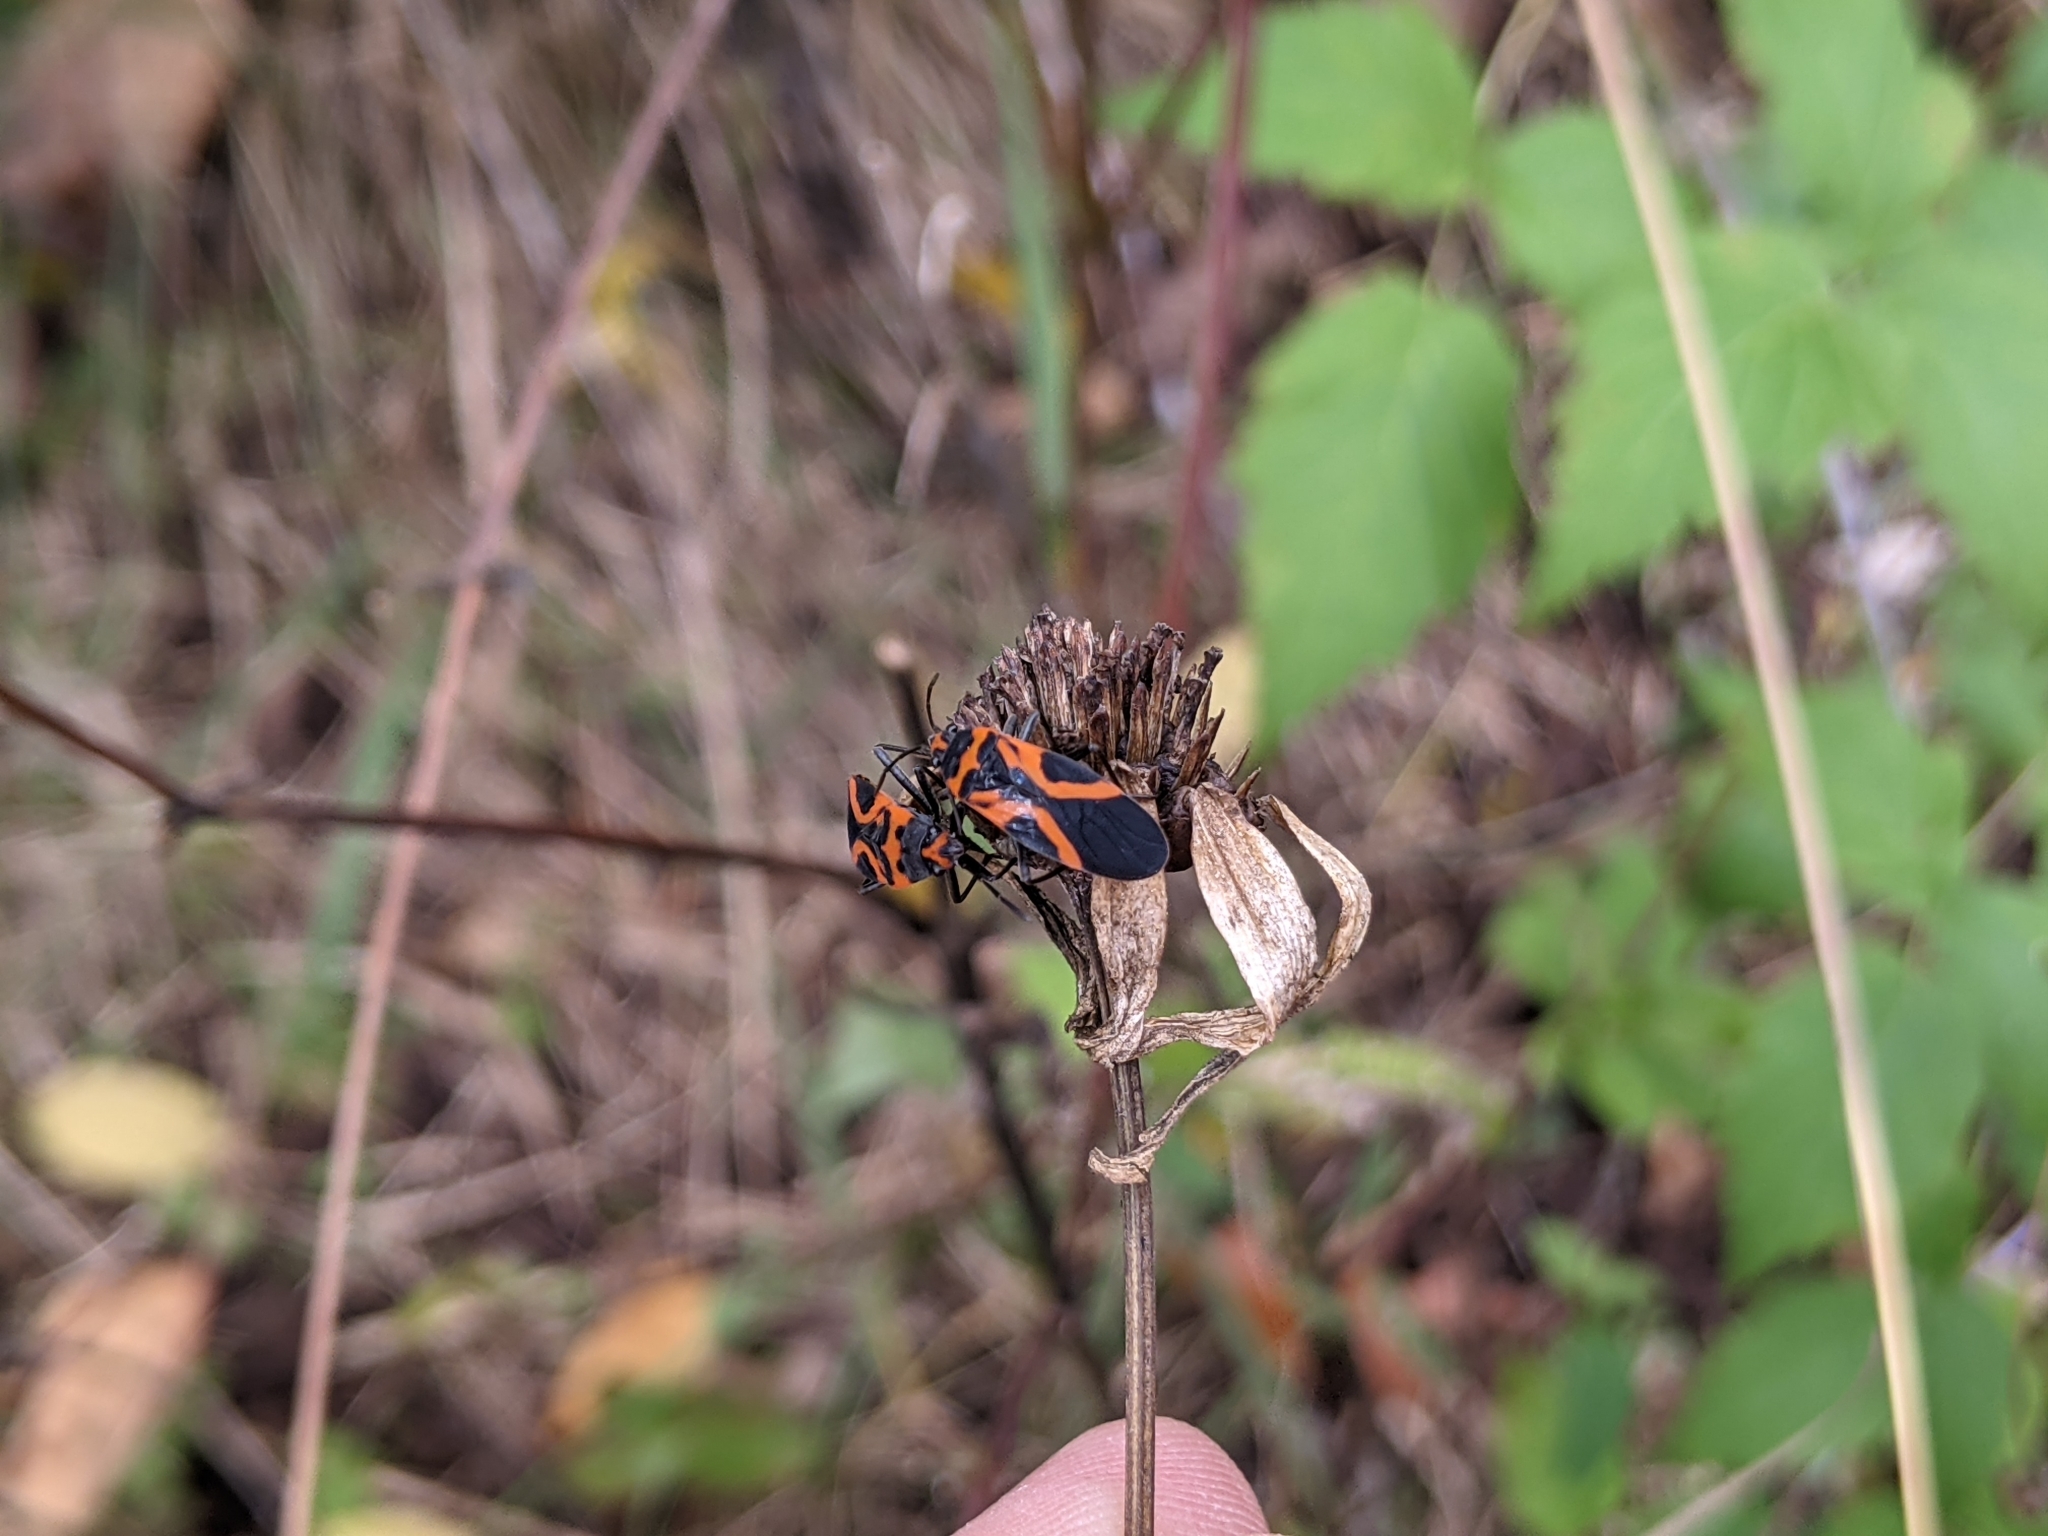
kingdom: Animalia
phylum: Arthropoda
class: Insecta
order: Hemiptera
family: Lygaeidae
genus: Lygaeus
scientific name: Lygaeus turcicus
